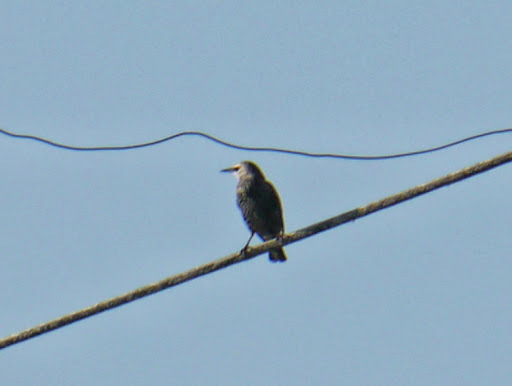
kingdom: Animalia
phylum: Chordata
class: Aves
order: Passeriformes
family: Sturnidae
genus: Sturnus
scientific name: Sturnus vulgaris
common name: Common starling
